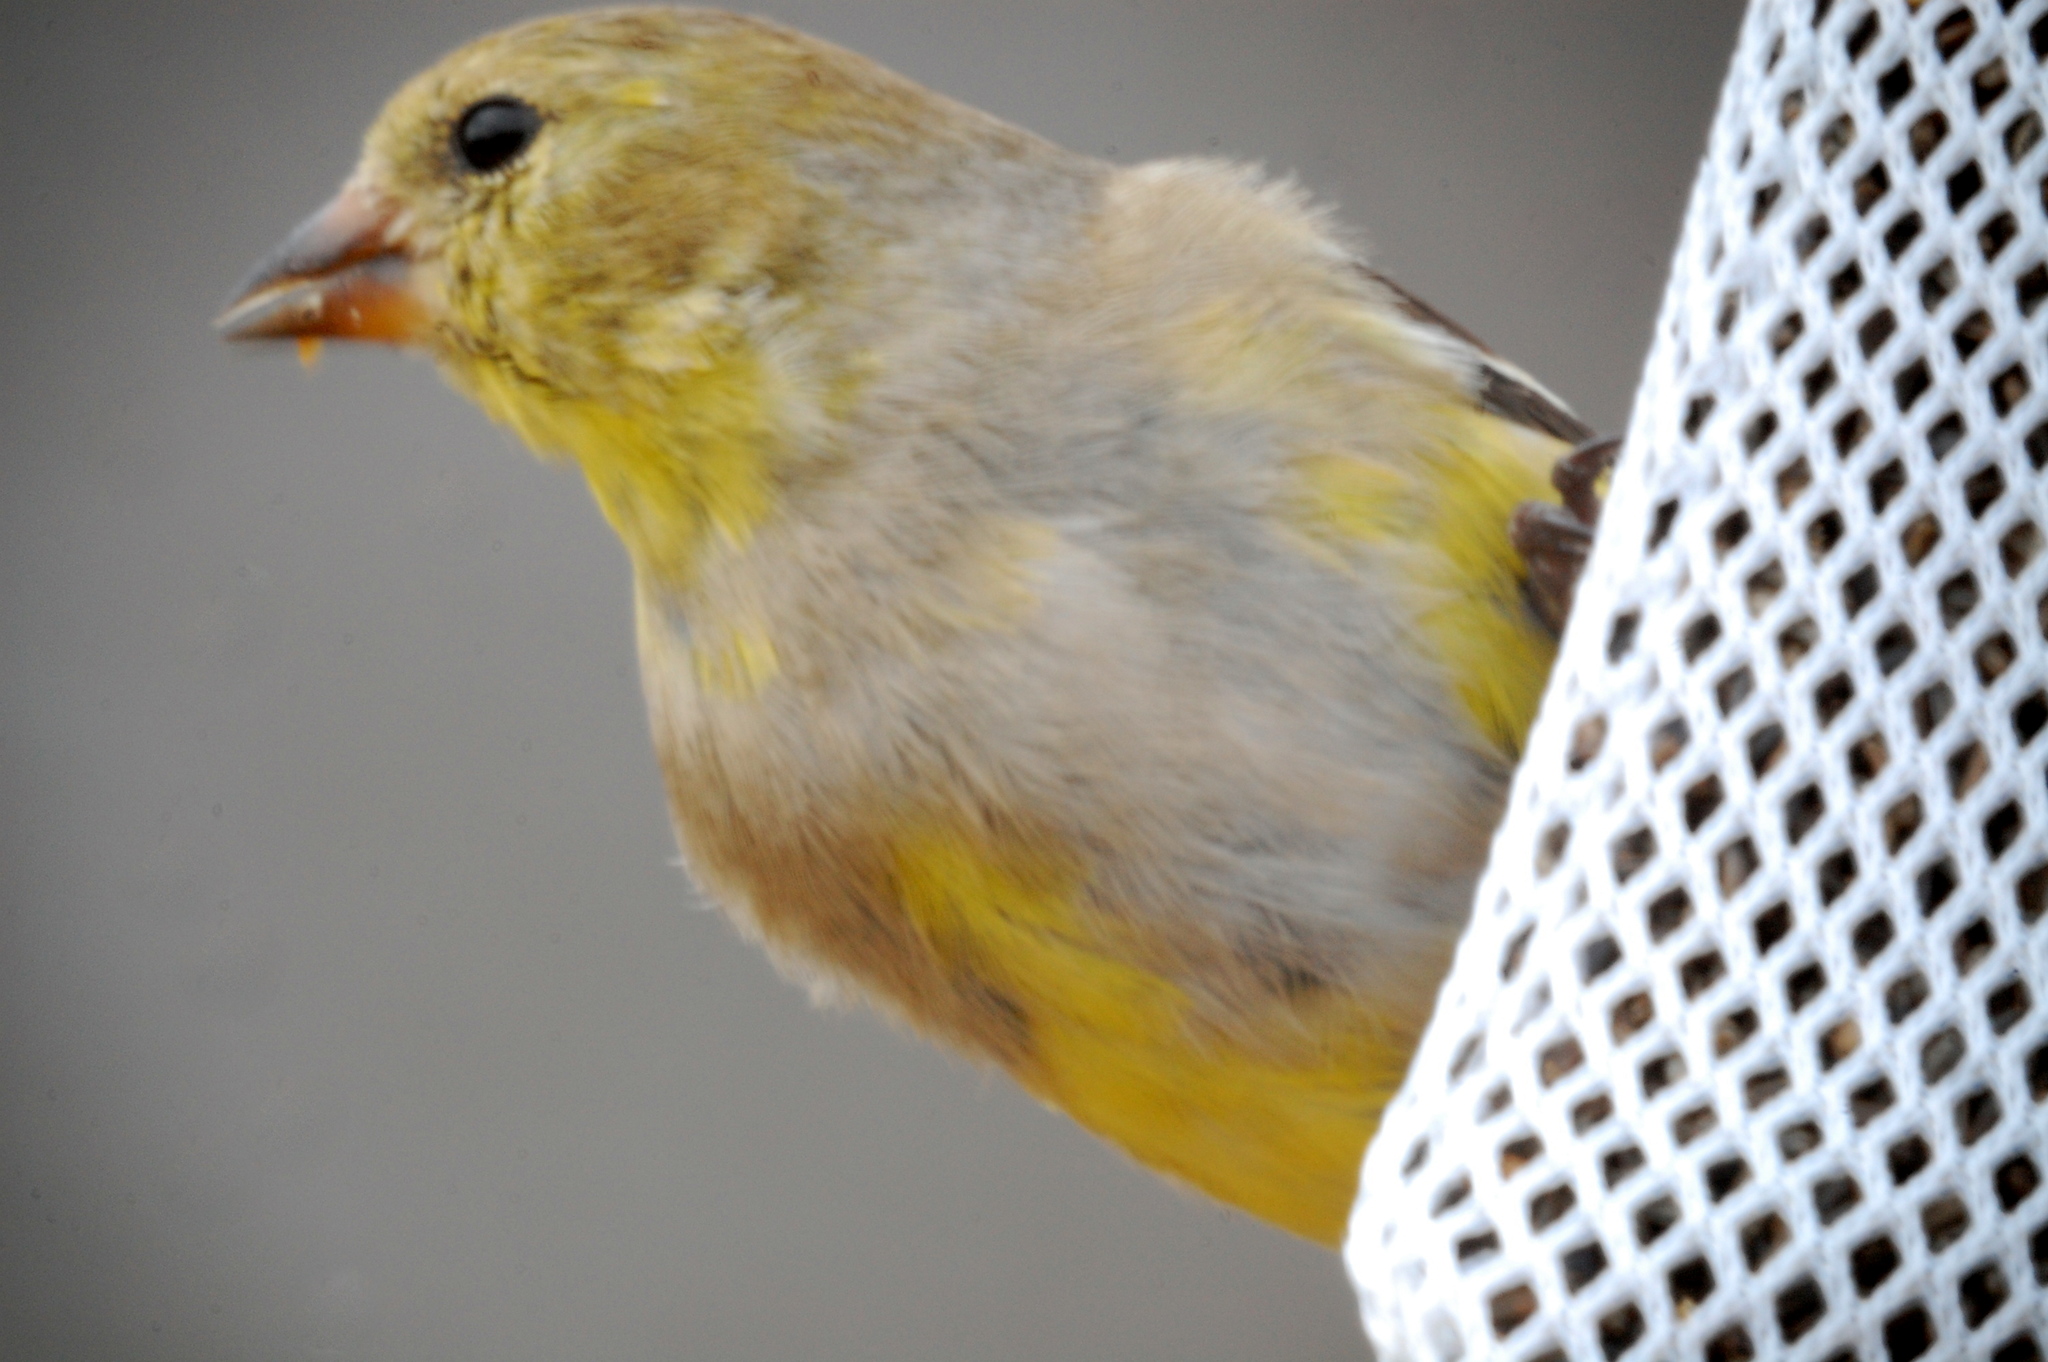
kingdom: Animalia
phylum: Chordata
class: Aves
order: Passeriformes
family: Fringillidae
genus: Spinus
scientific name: Spinus tristis
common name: American goldfinch
